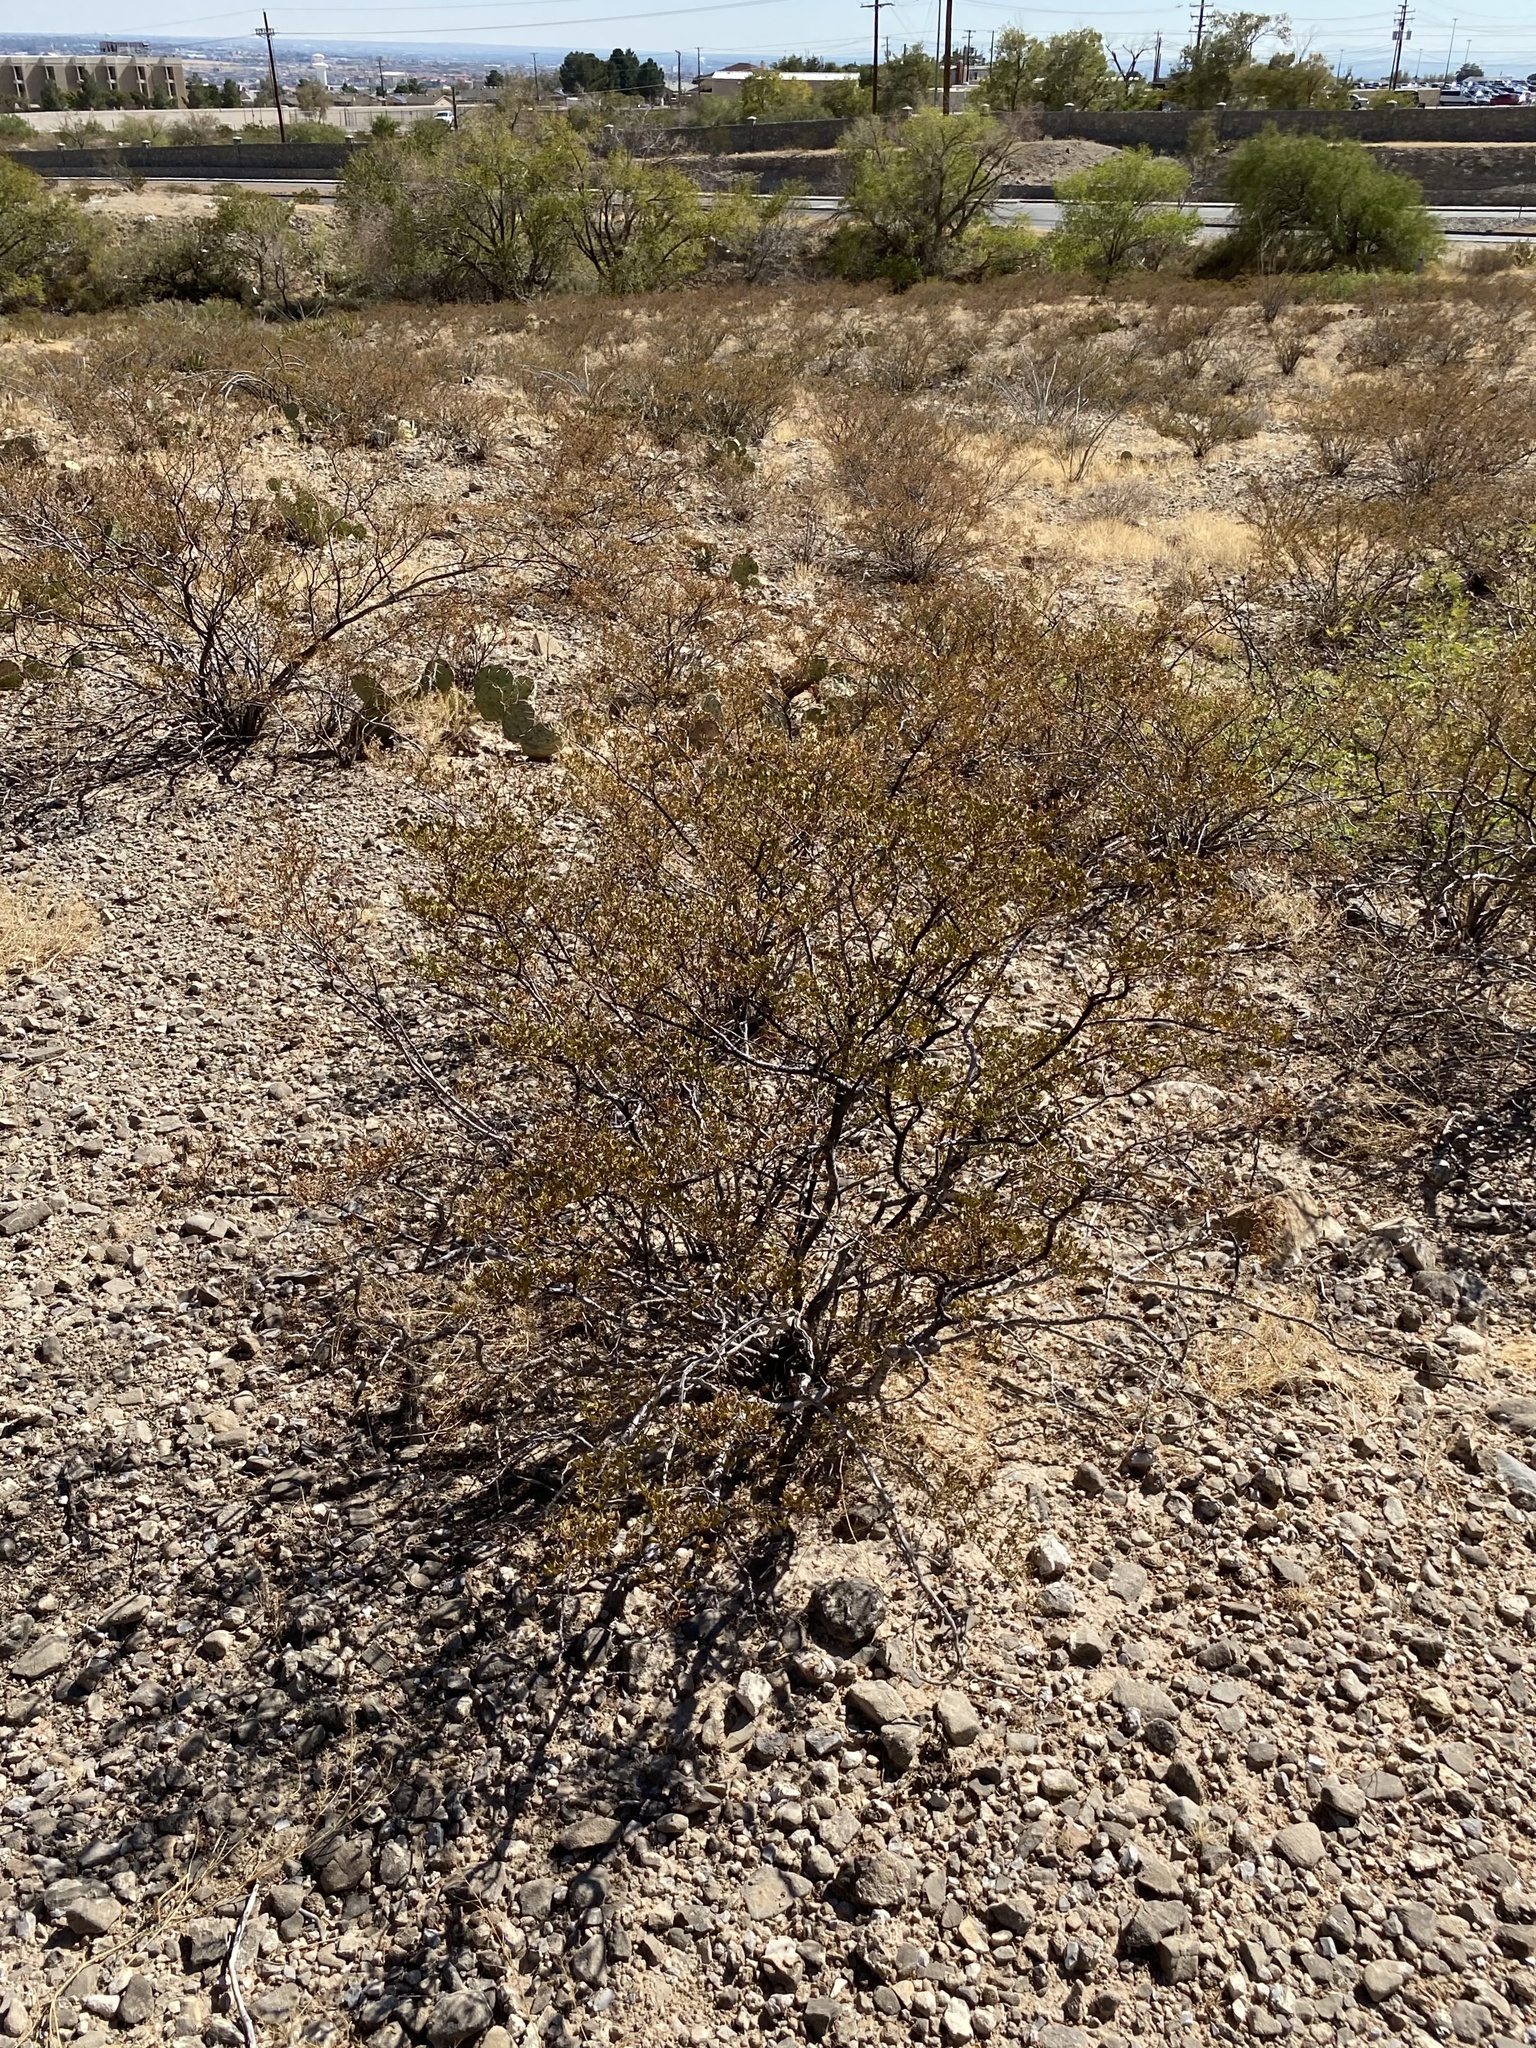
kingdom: Plantae
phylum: Tracheophyta
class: Magnoliopsida
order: Zygophyllales
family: Zygophyllaceae
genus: Larrea
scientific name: Larrea tridentata
